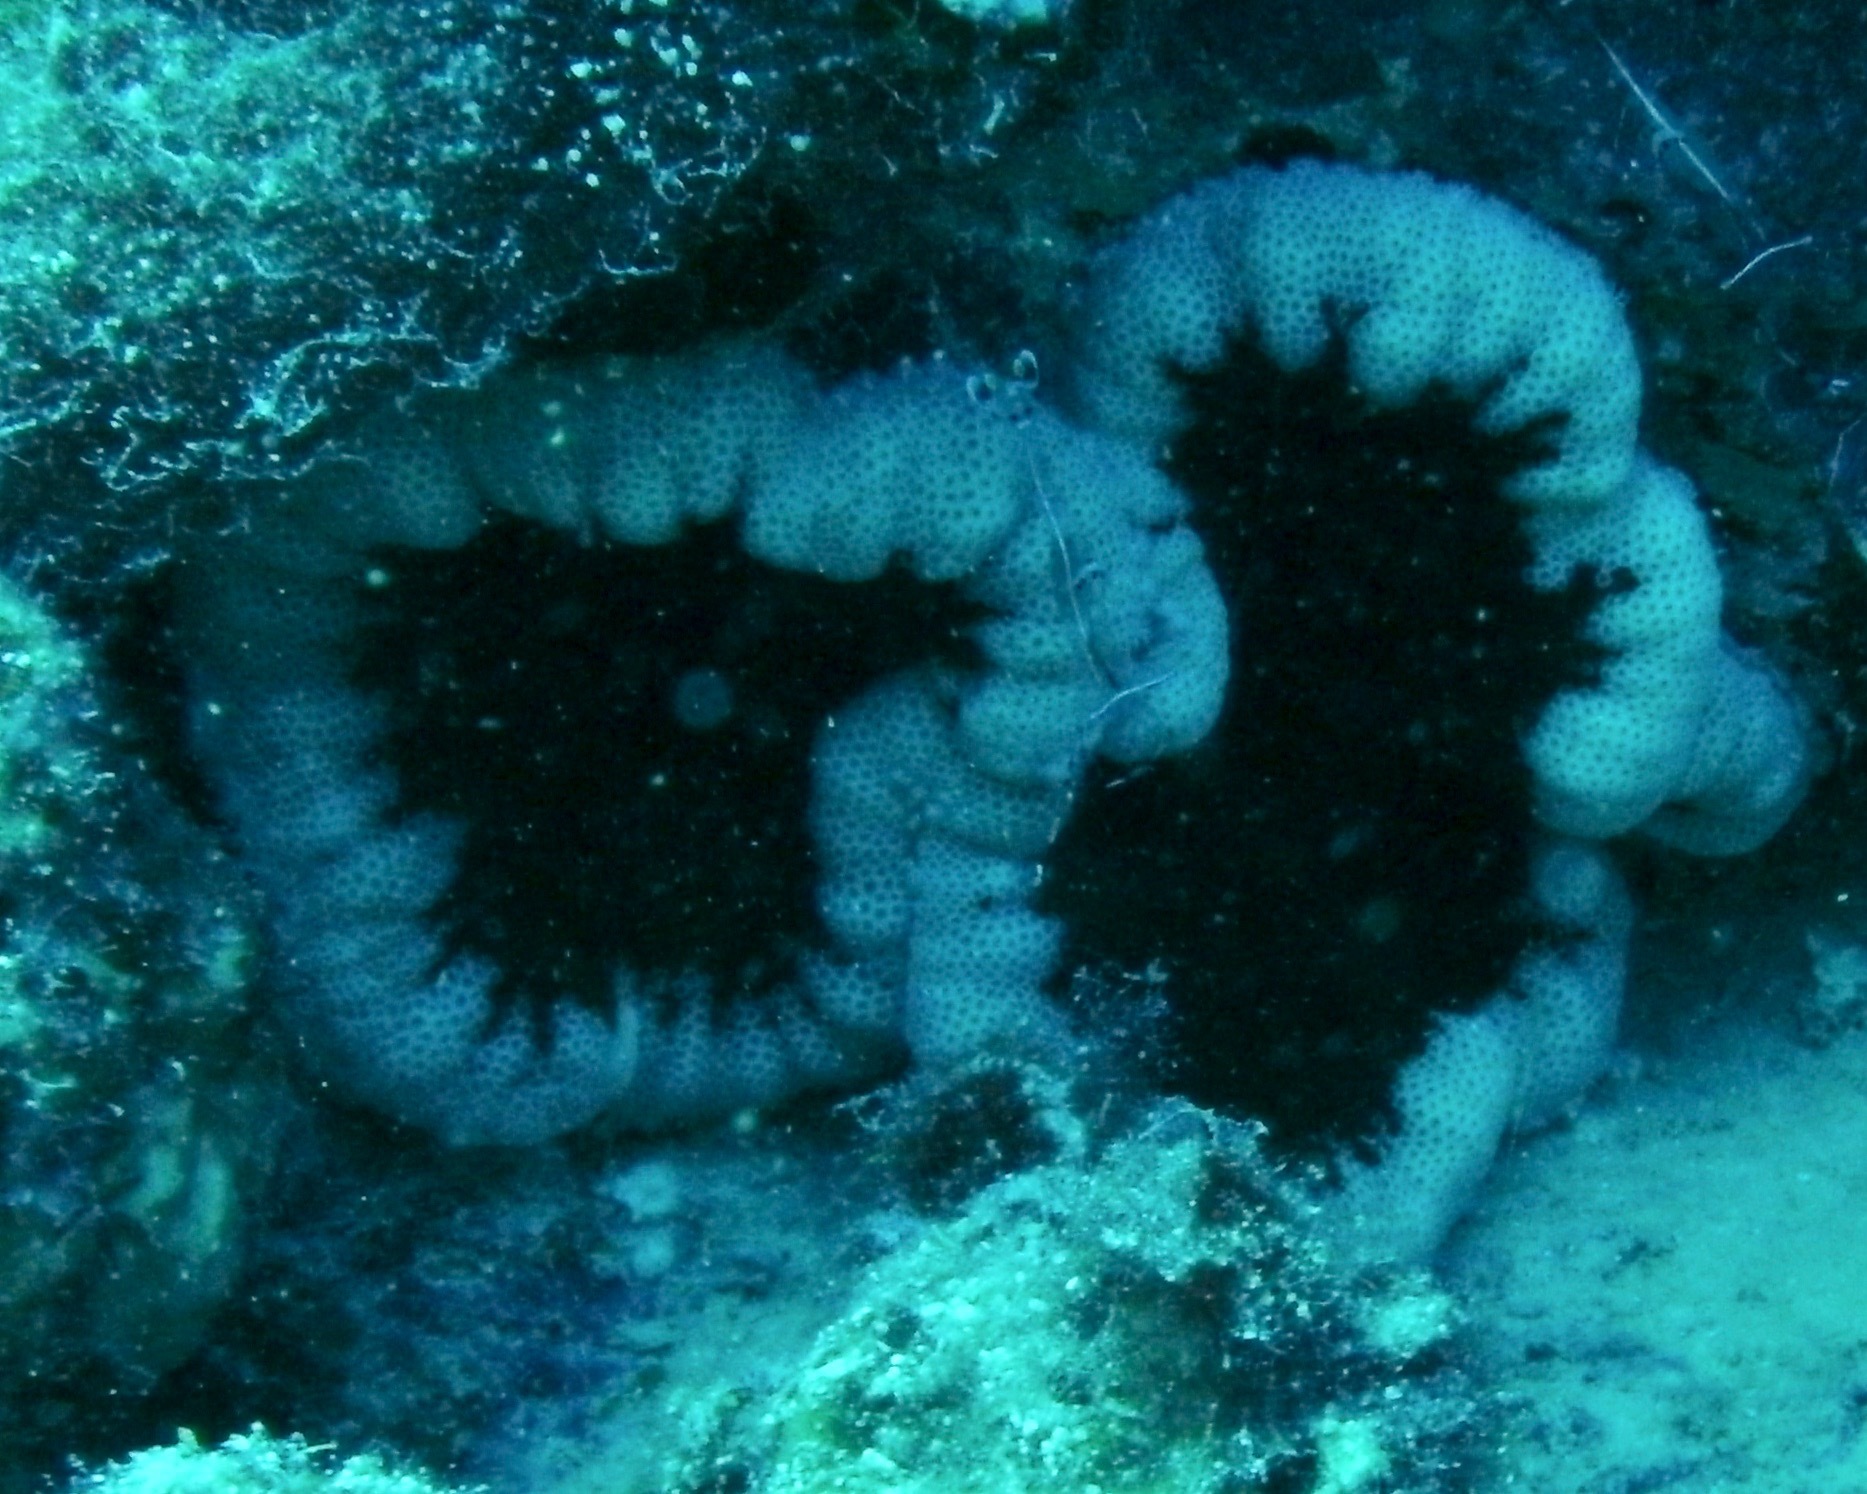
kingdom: Animalia
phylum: Cnidaria
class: Anthozoa
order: Actiniaria
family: Thalassianthidae
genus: Cryptodendrum
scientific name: Cryptodendrum adhaesivum
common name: Adhesive sea anemone
